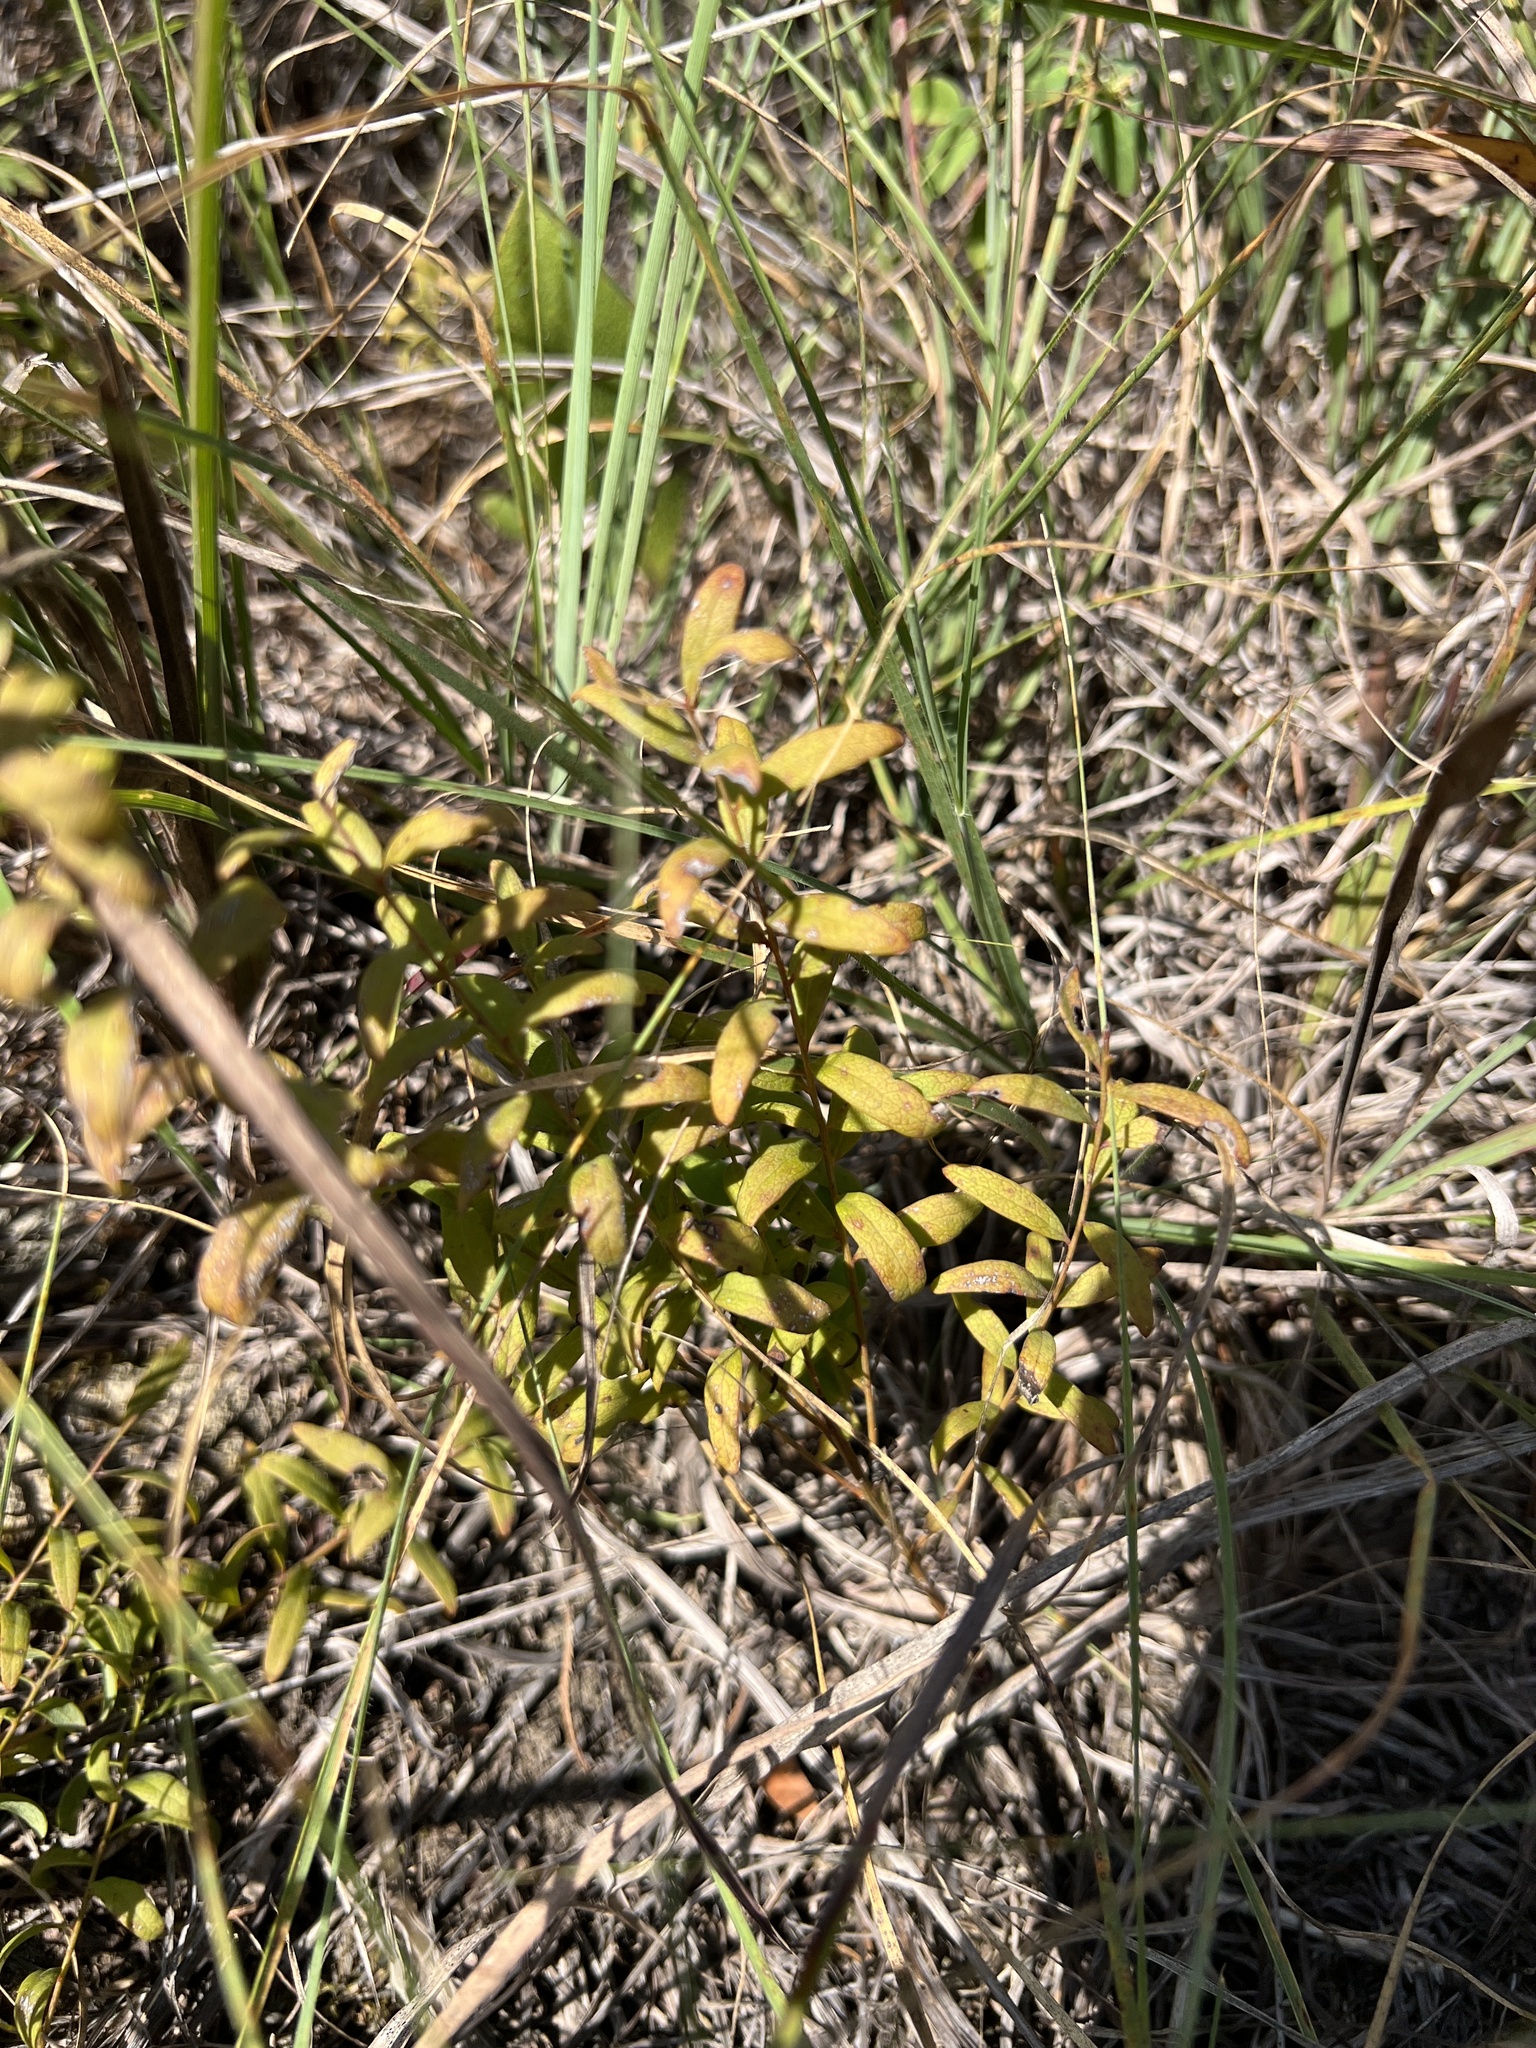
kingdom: Plantae
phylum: Tracheophyta
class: Magnoliopsida
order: Santalales
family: Comandraceae
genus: Comandra
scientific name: Comandra umbellata
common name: Bastard toadflax
